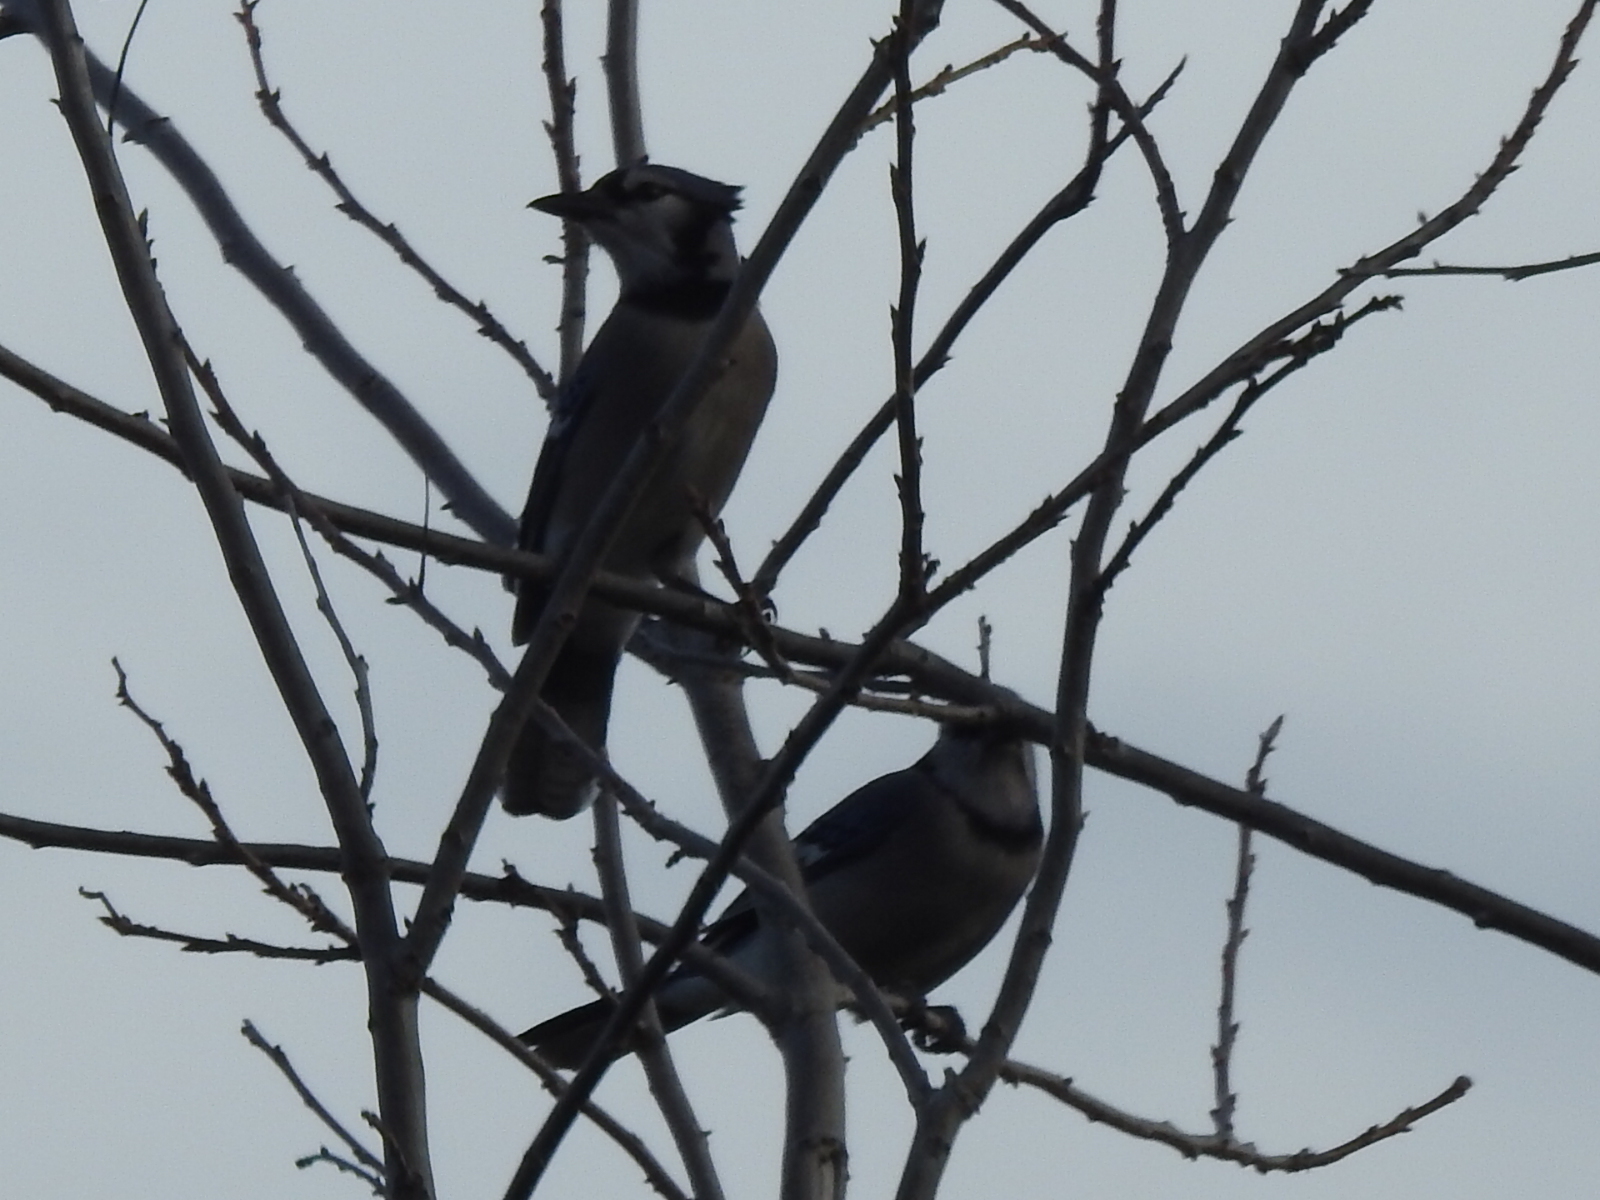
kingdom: Animalia
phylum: Chordata
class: Aves
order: Passeriformes
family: Corvidae
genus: Cyanocitta
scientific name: Cyanocitta cristata
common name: Blue jay
